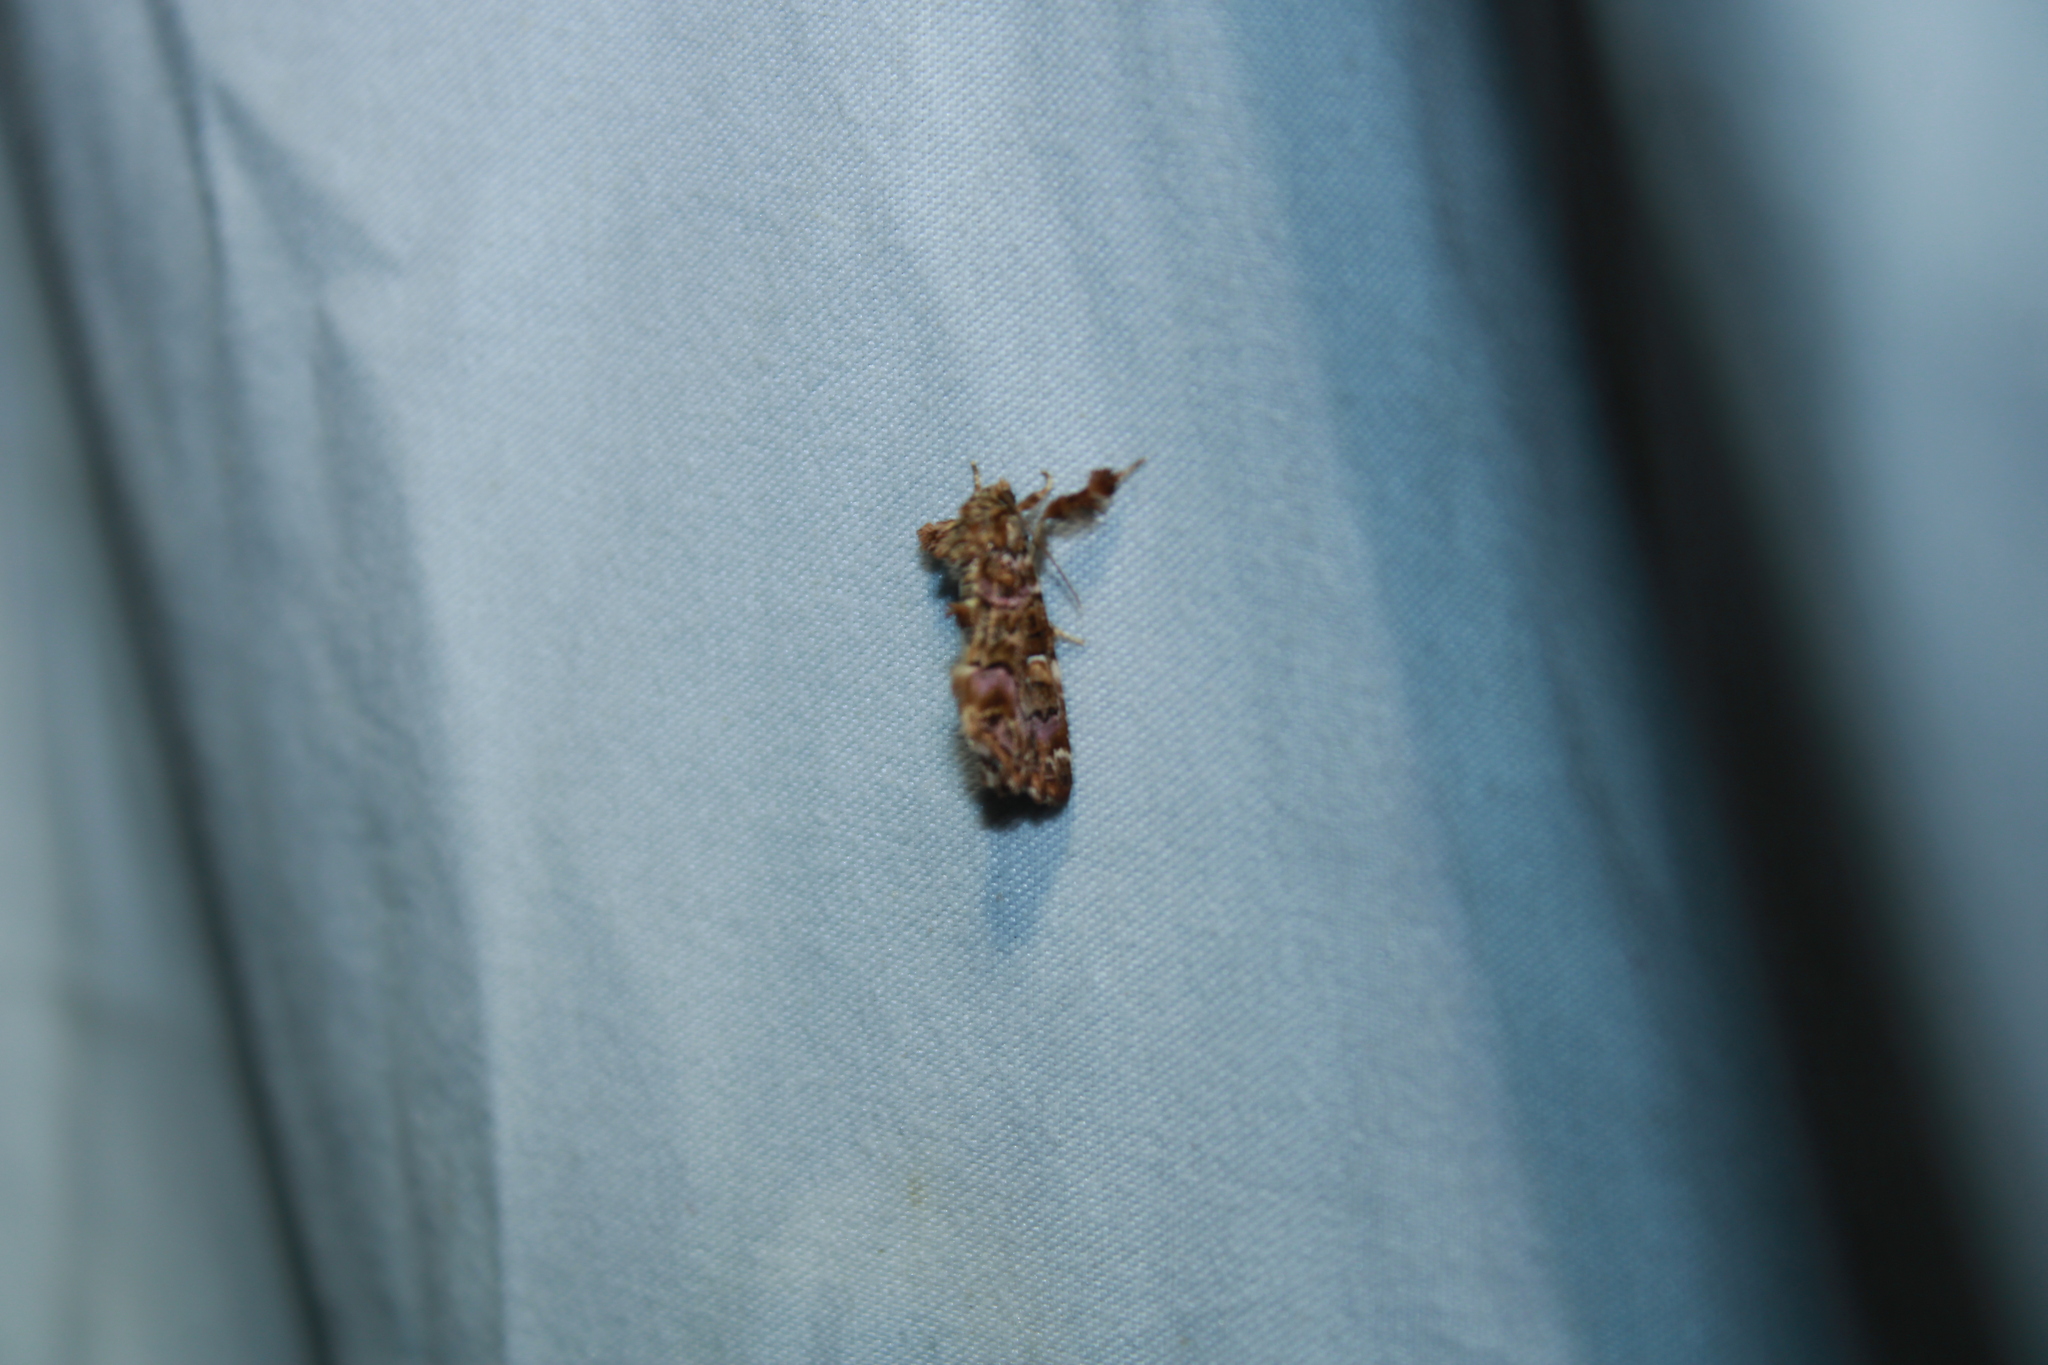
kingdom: Animalia
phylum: Arthropoda
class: Insecta
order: Lepidoptera
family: Noctuidae
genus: Callopistria
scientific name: Callopistria mollissima
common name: Pink-shaded fern moth
